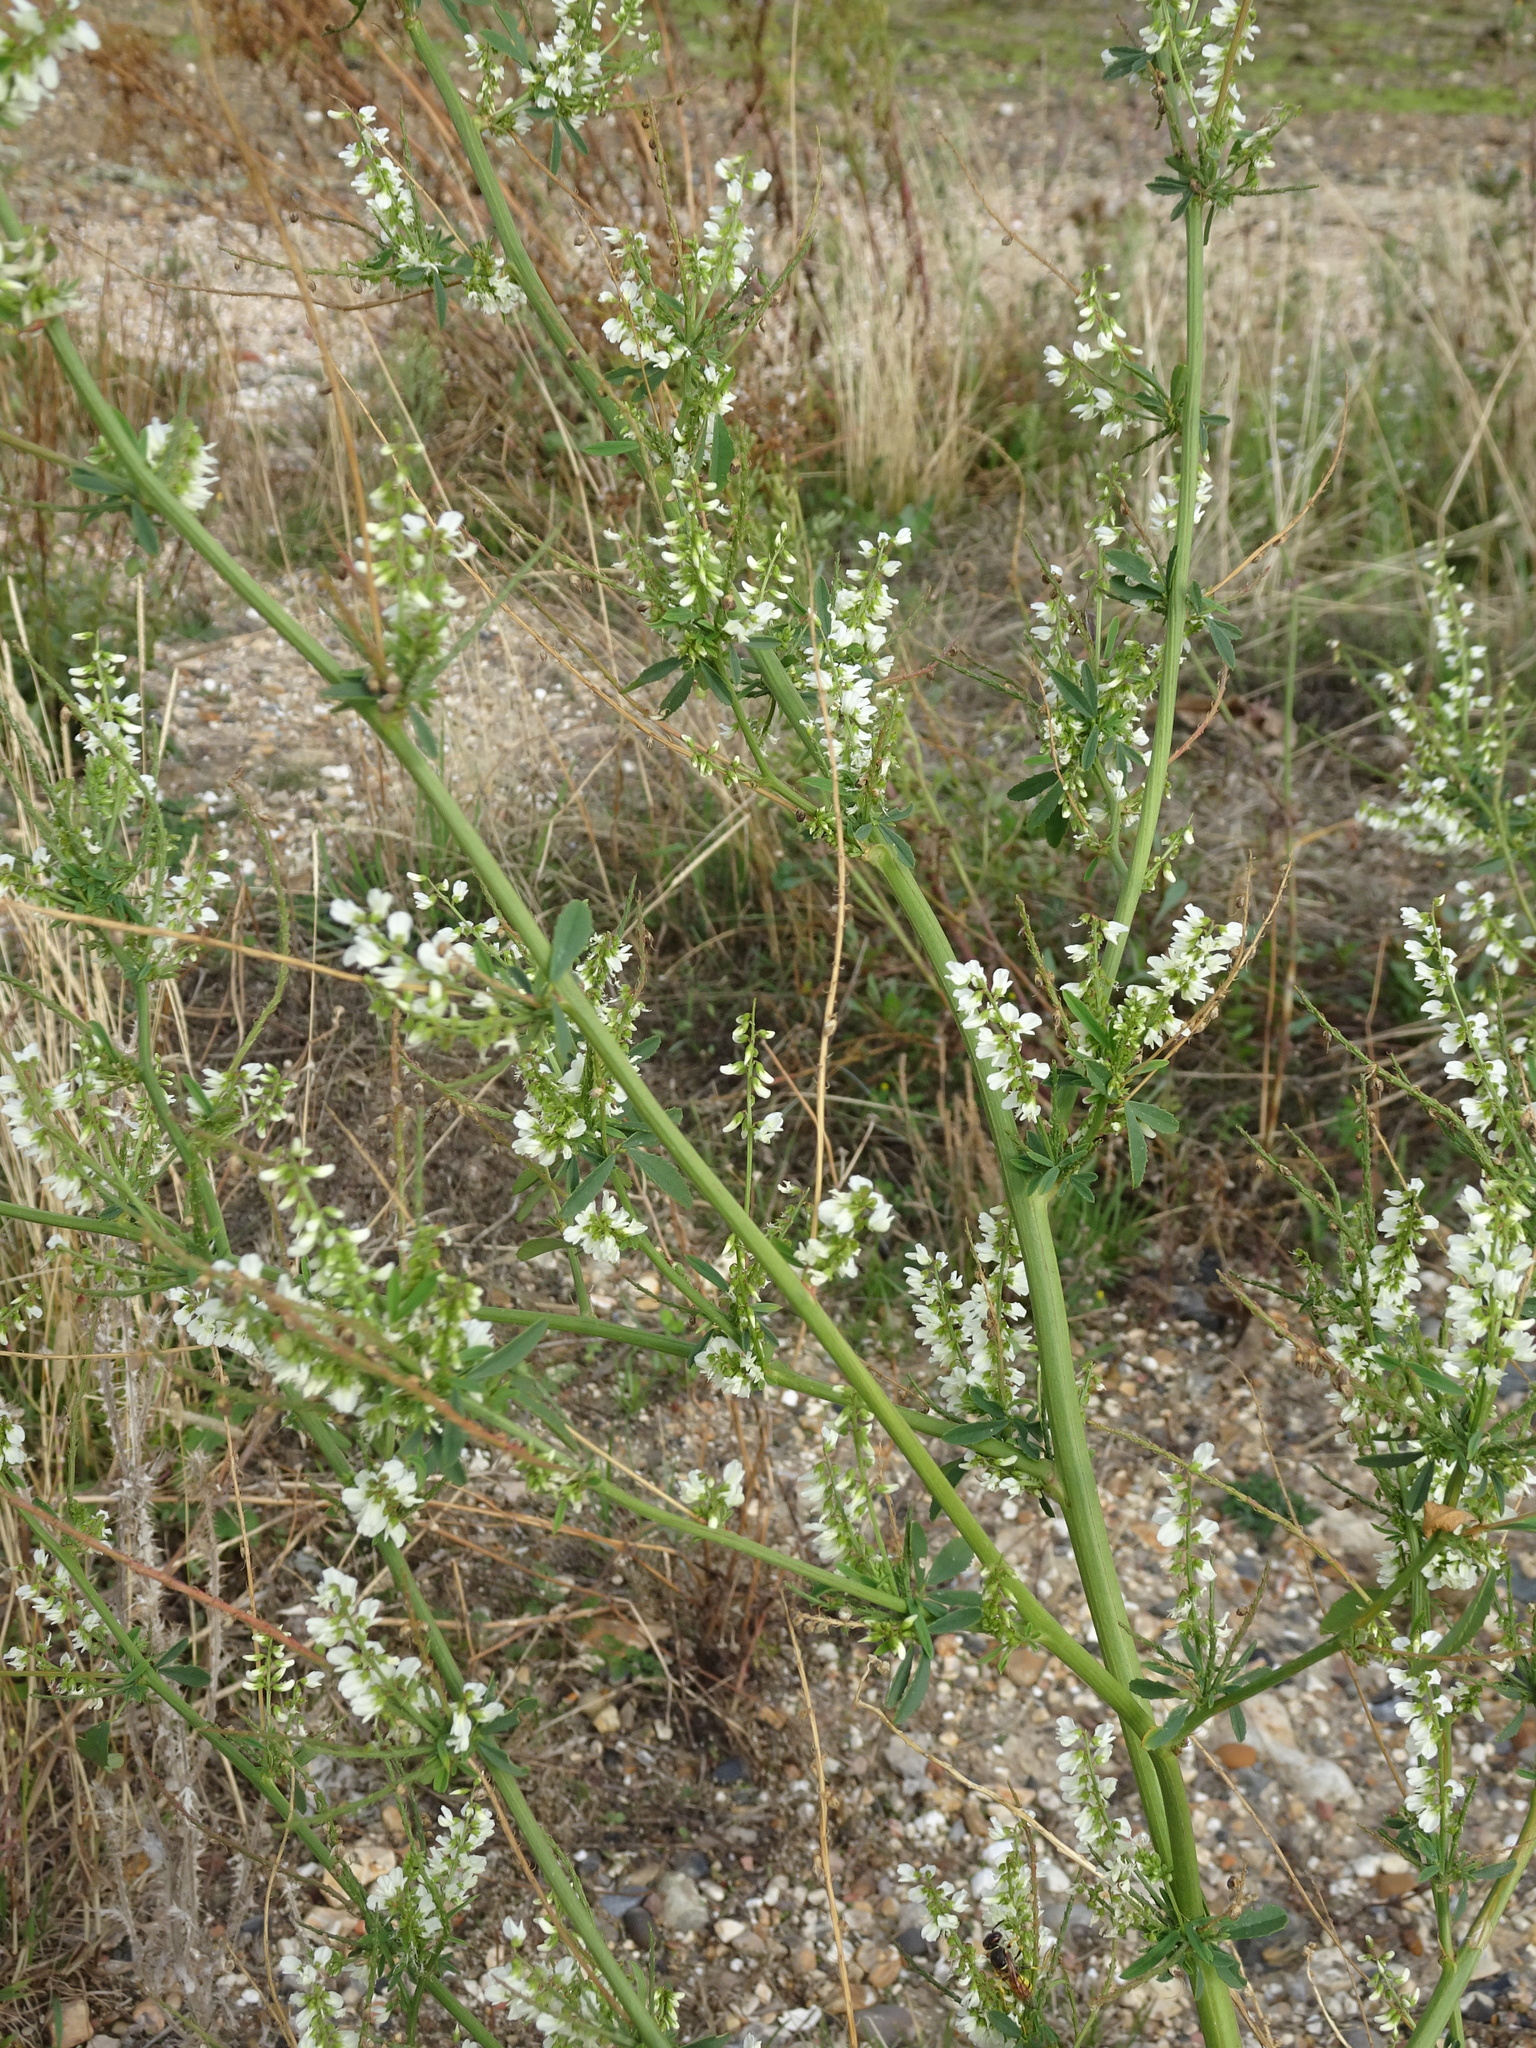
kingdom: Plantae
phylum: Tracheophyta
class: Magnoliopsida
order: Fabales
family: Fabaceae
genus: Melilotus
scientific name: Melilotus albus
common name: White melilot
